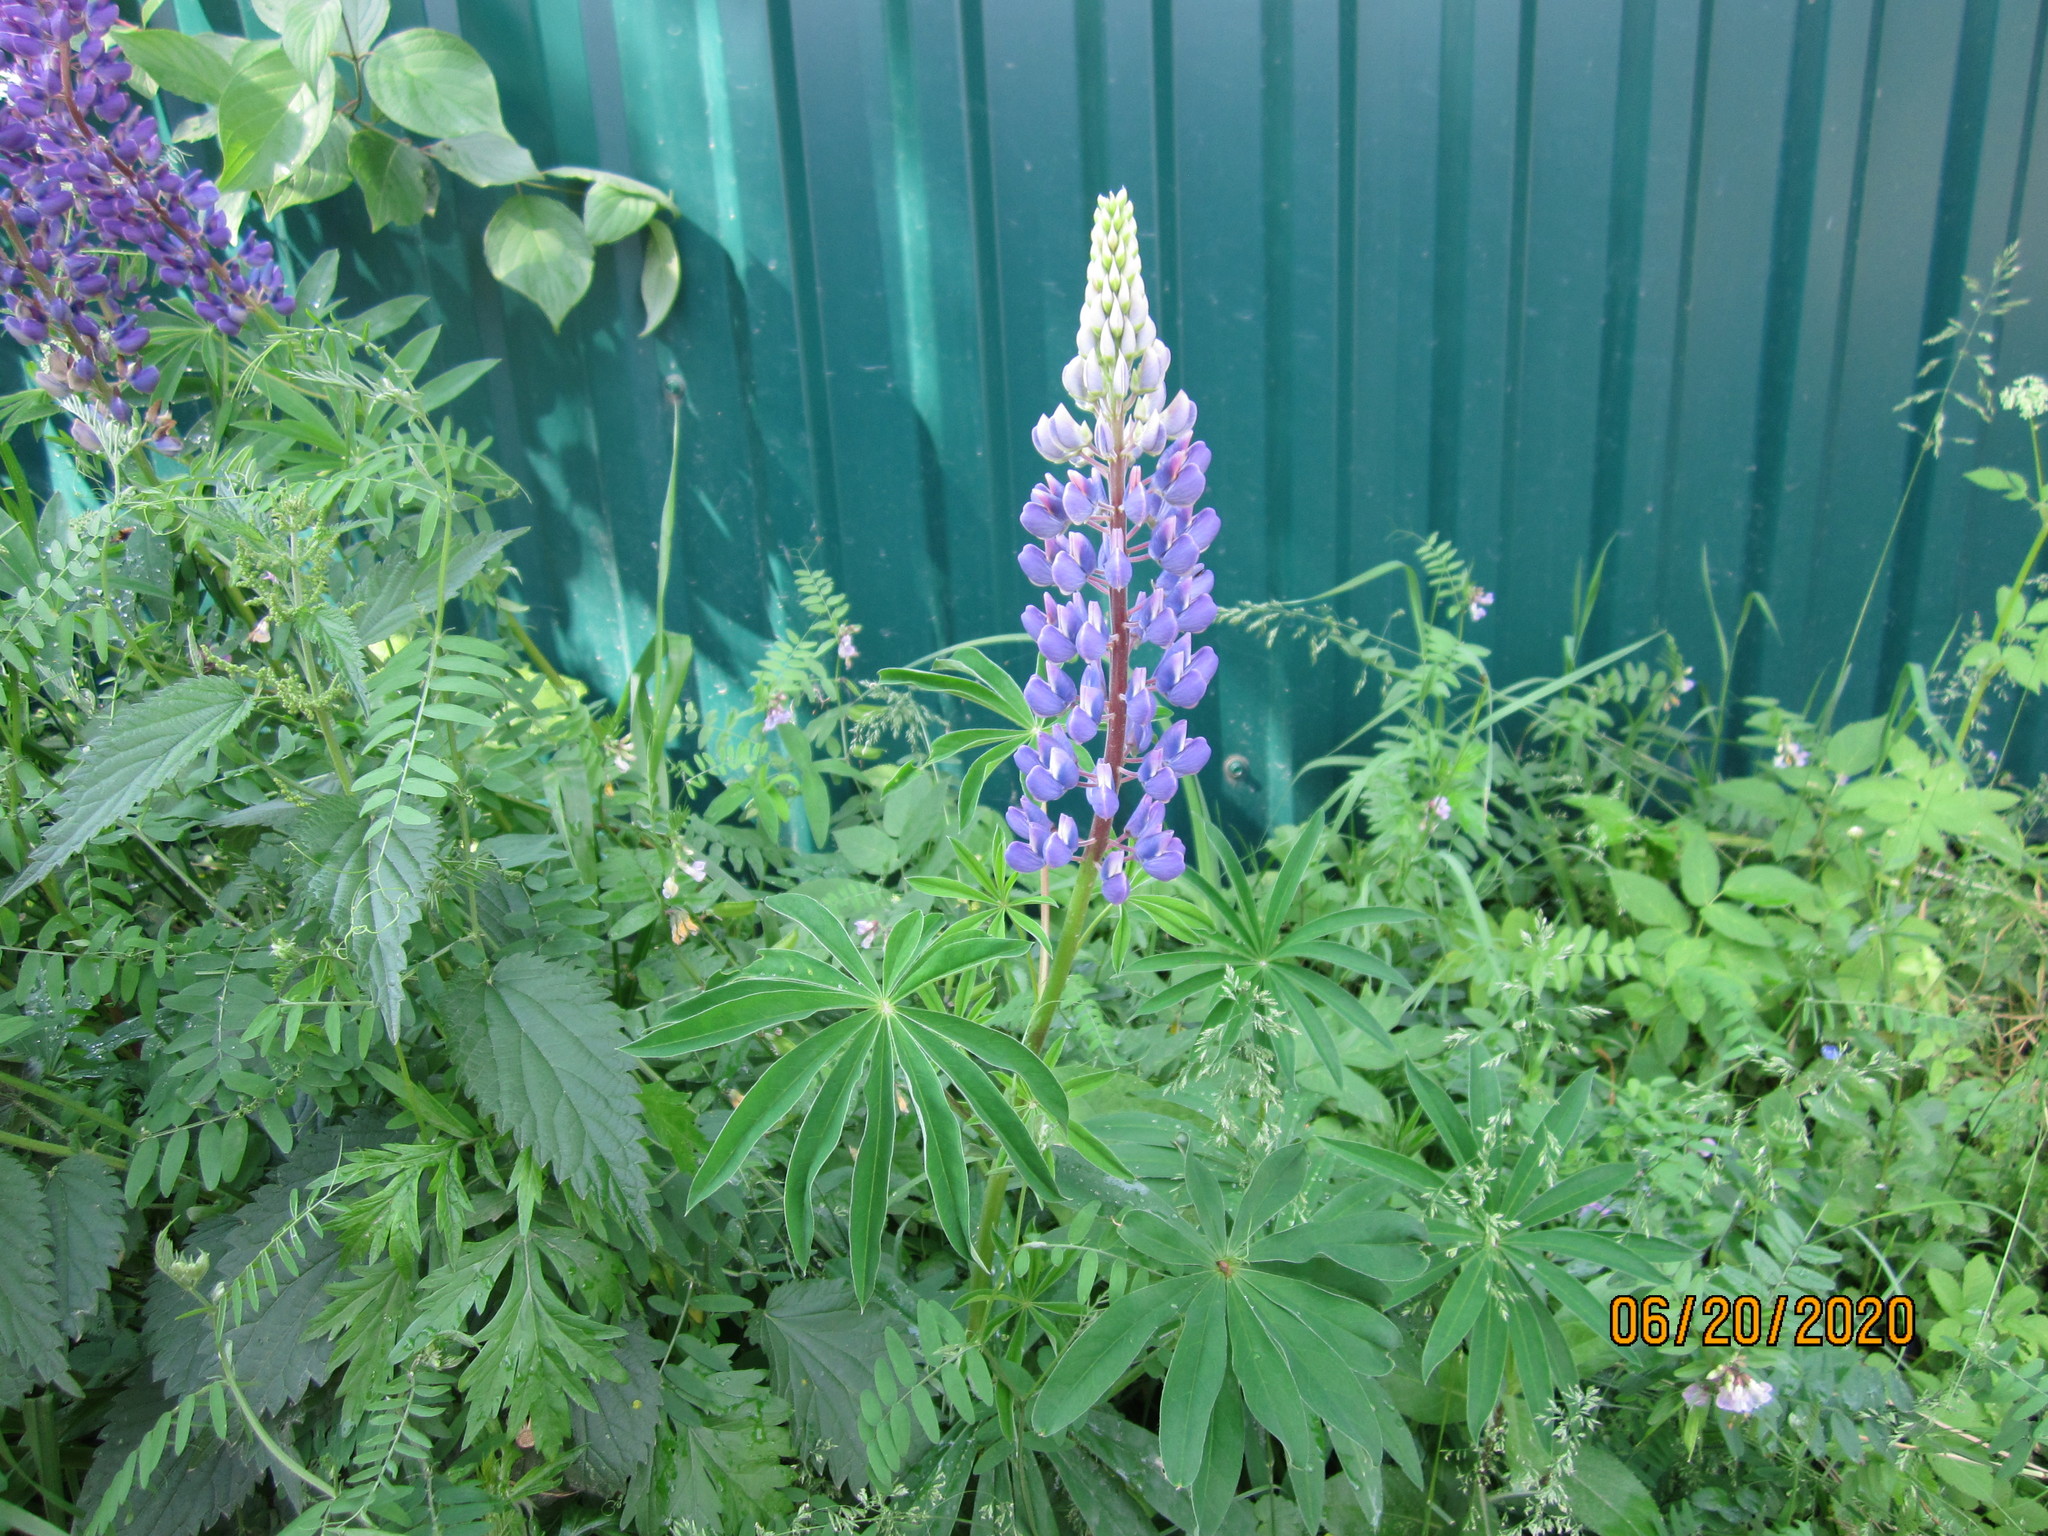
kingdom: Plantae
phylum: Tracheophyta
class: Magnoliopsida
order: Fabales
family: Fabaceae
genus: Lupinus
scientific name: Lupinus polyphyllus
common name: Garden lupin
